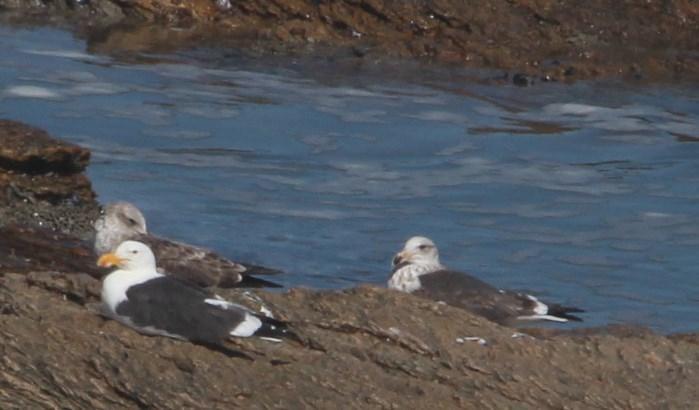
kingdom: Animalia
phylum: Chordata
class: Aves
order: Charadriiformes
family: Laridae
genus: Larus
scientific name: Larus dominicanus
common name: Kelp gull
